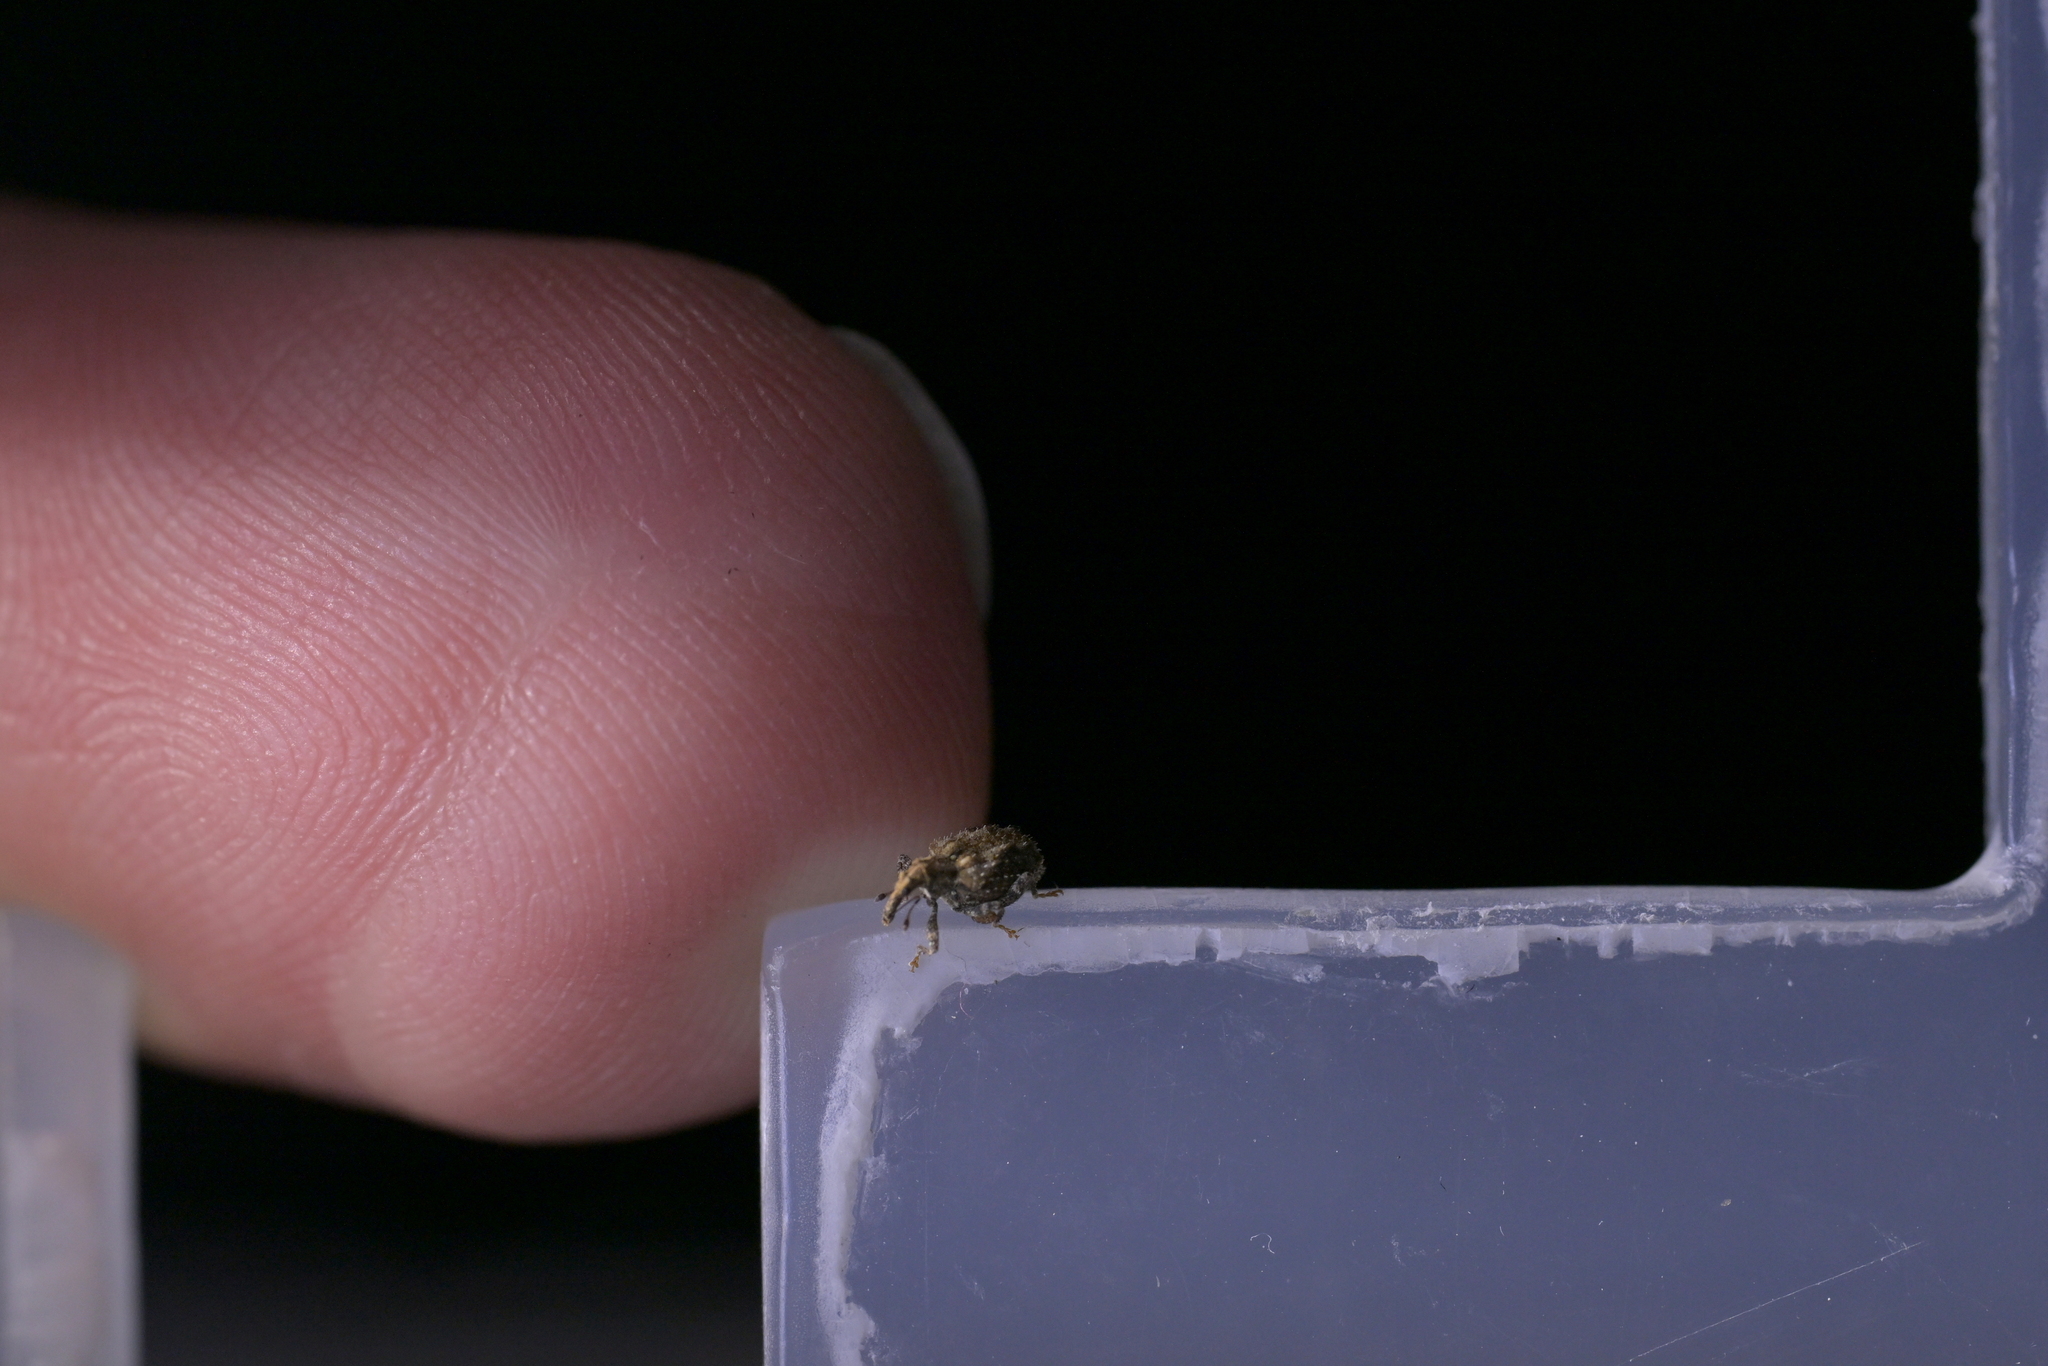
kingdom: Animalia
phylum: Arthropoda
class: Insecta
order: Coleoptera
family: Curculionidae
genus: Tysius
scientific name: Tysius bicornis
